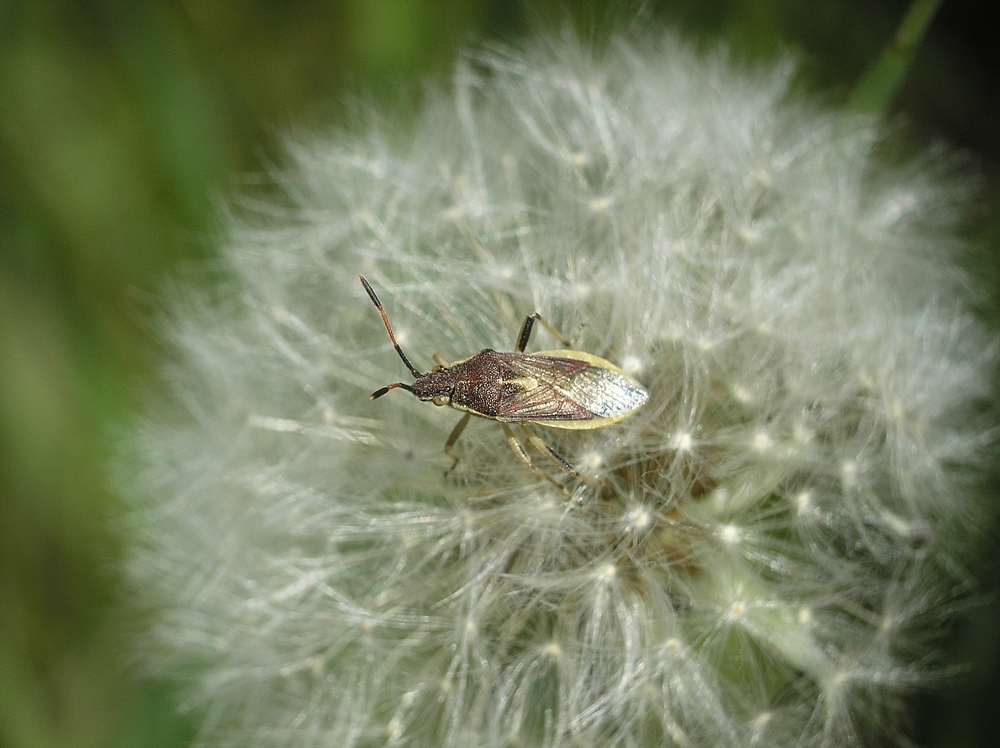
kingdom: Animalia
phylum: Arthropoda
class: Insecta
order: Hemiptera
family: Rhopalidae
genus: Maccevethus
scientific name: Maccevethus
